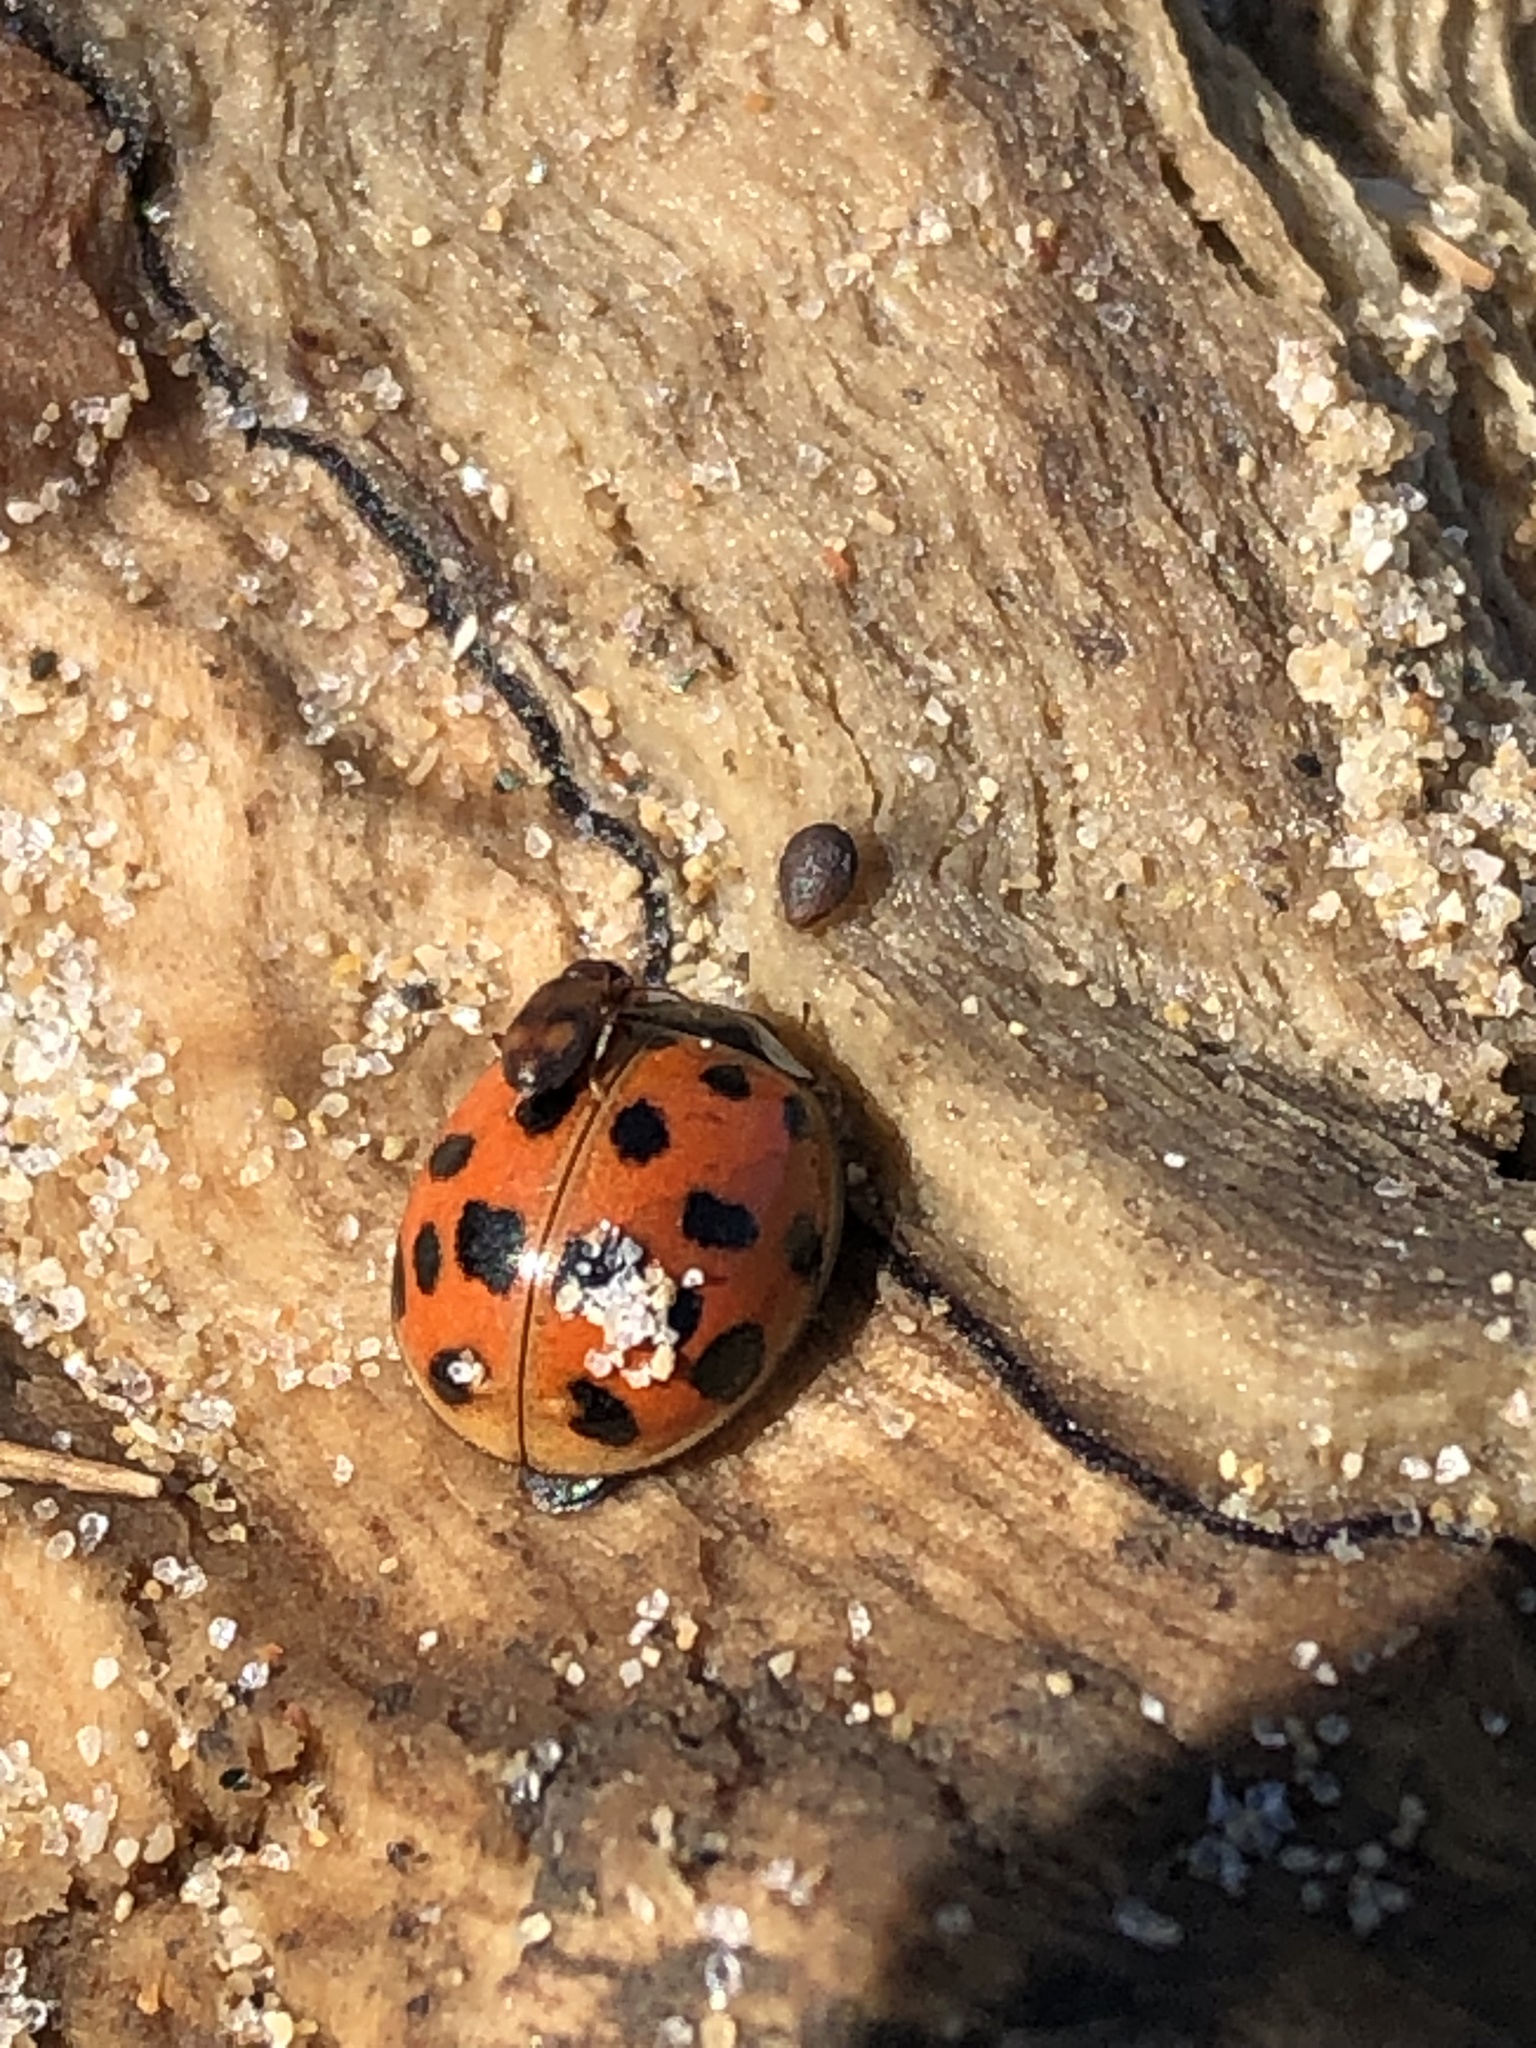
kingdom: Animalia
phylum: Arthropoda
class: Insecta
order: Coleoptera
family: Coccinellidae
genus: Harmonia
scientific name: Harmonia axyridis
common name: Harlequin ladybird
